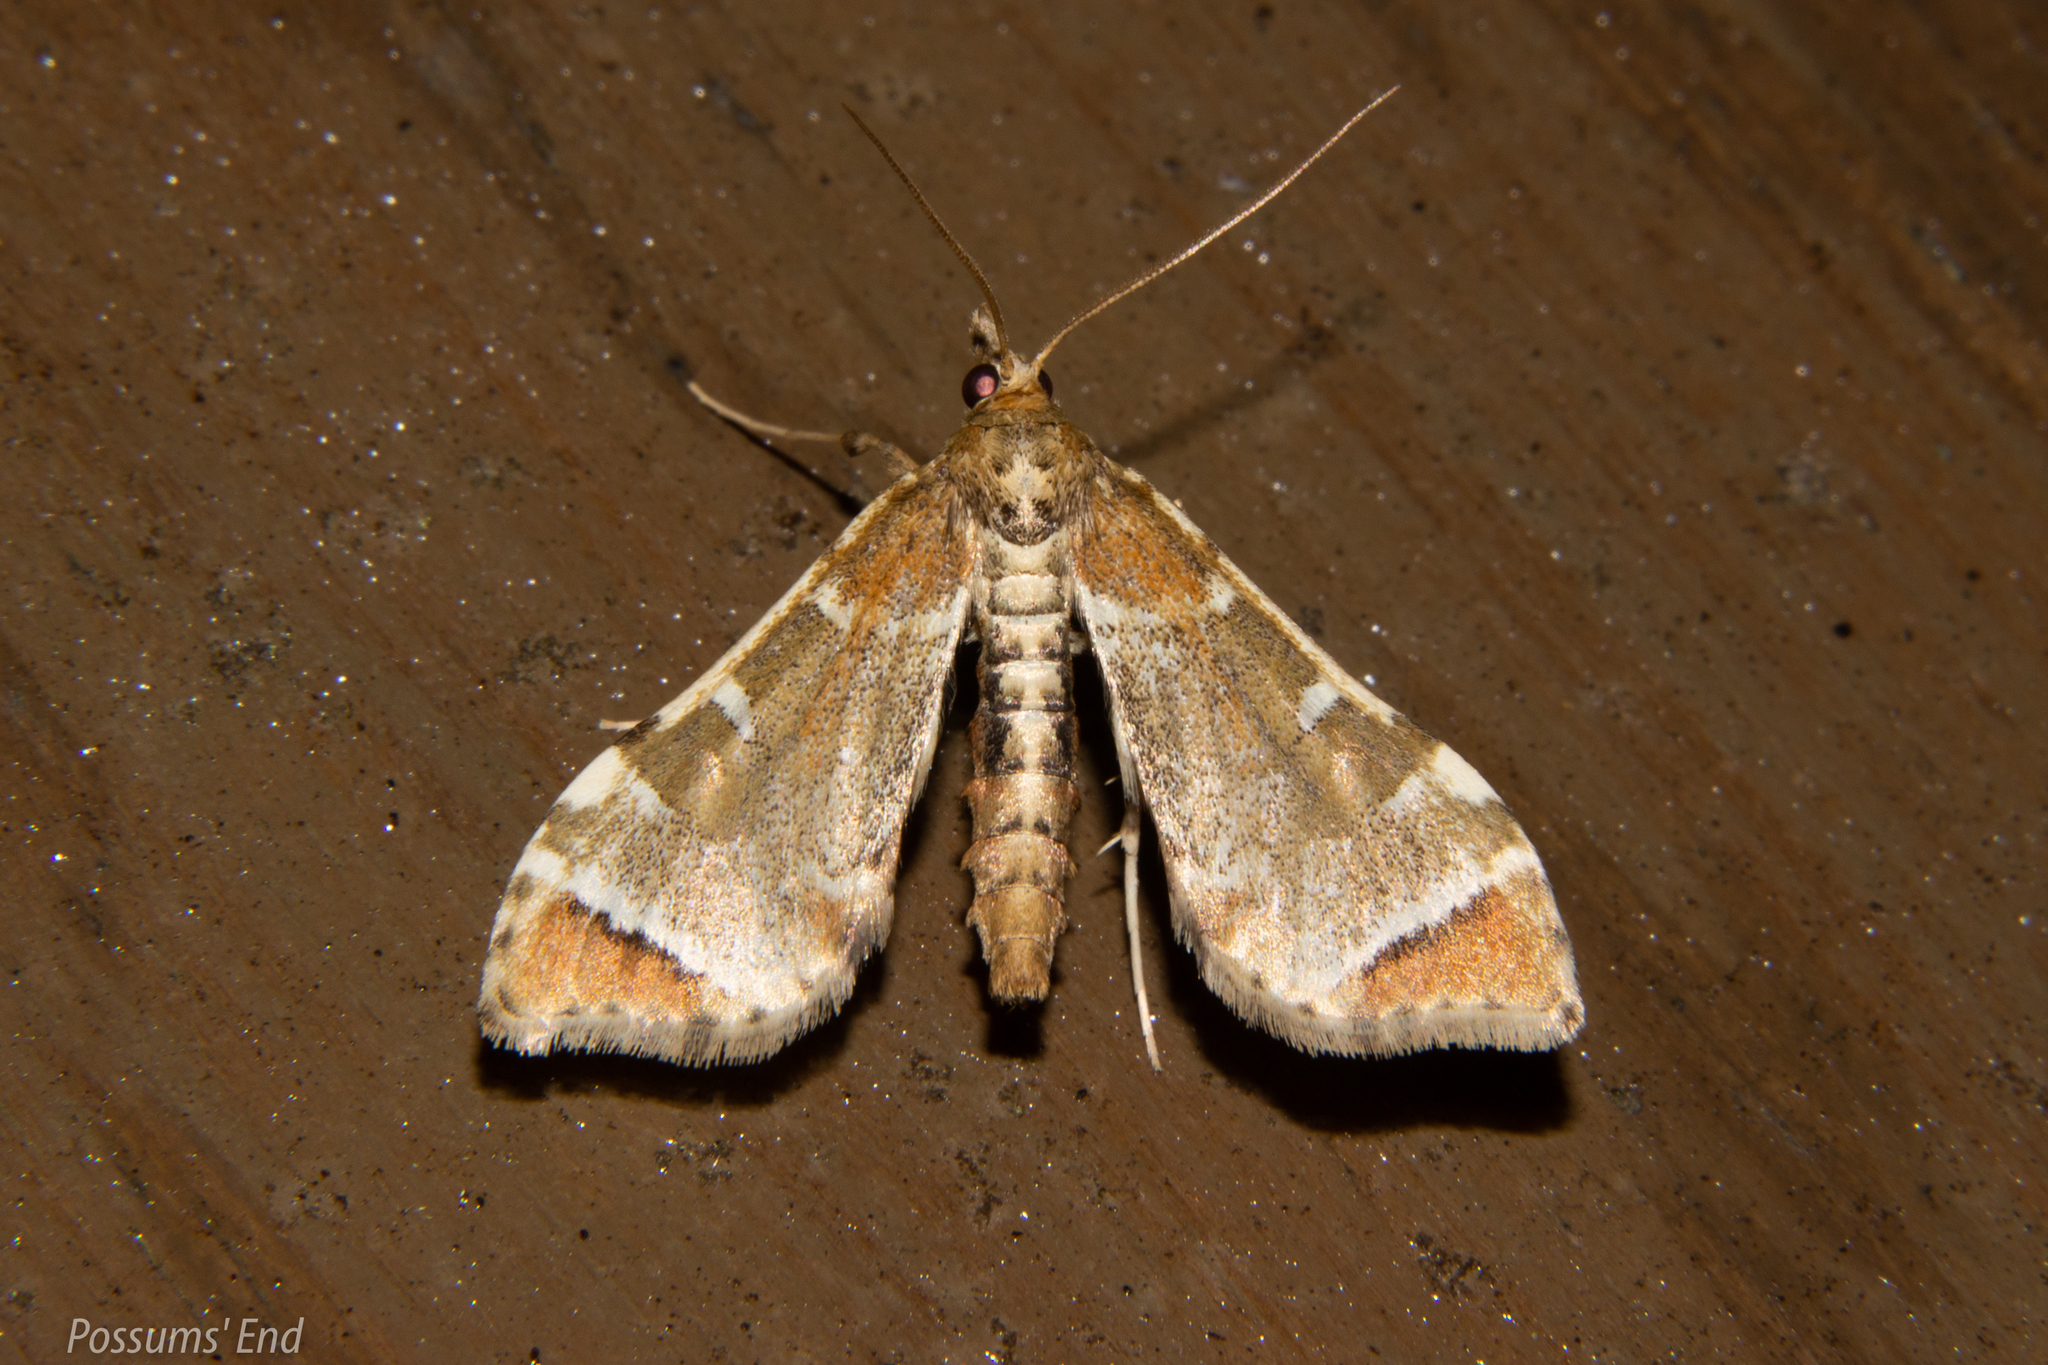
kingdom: Animalia
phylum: Arthropoda
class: Insecta
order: Lepidoptera
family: Crambidae
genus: Sceliodes
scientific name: Sceliodes cordalis
